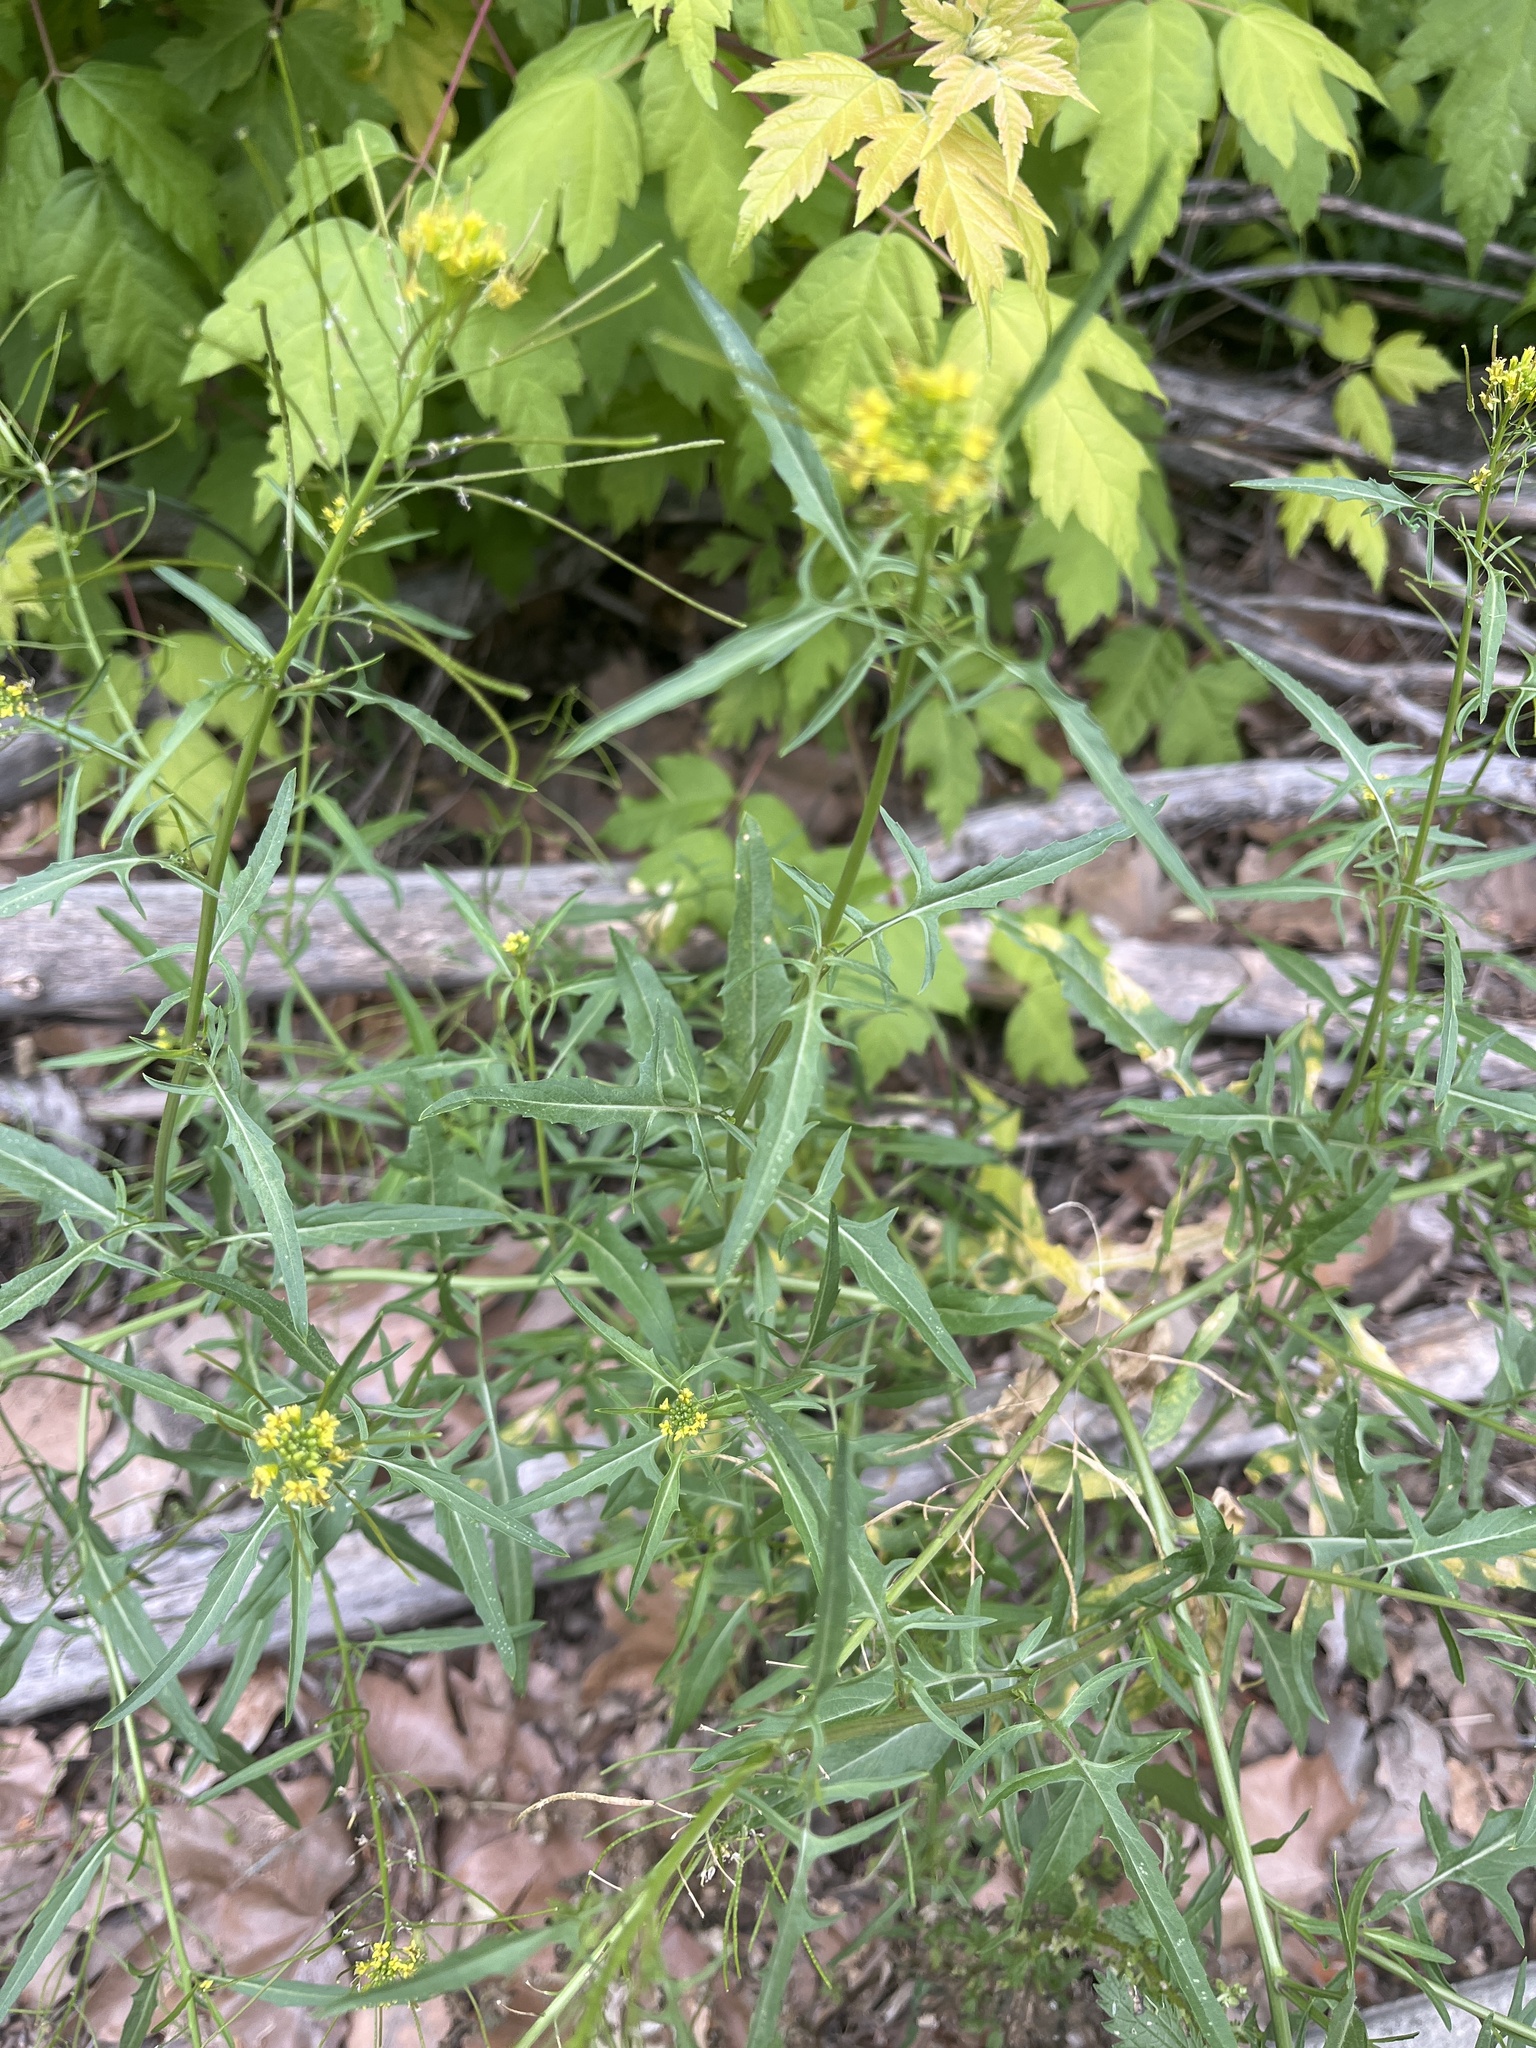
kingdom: Plantae
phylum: Tracheophyta
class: Magnoliopsida
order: Brassicales
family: Brassicaceae
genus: Sisymbrium
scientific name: Sisymbrium irio
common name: London rocket
